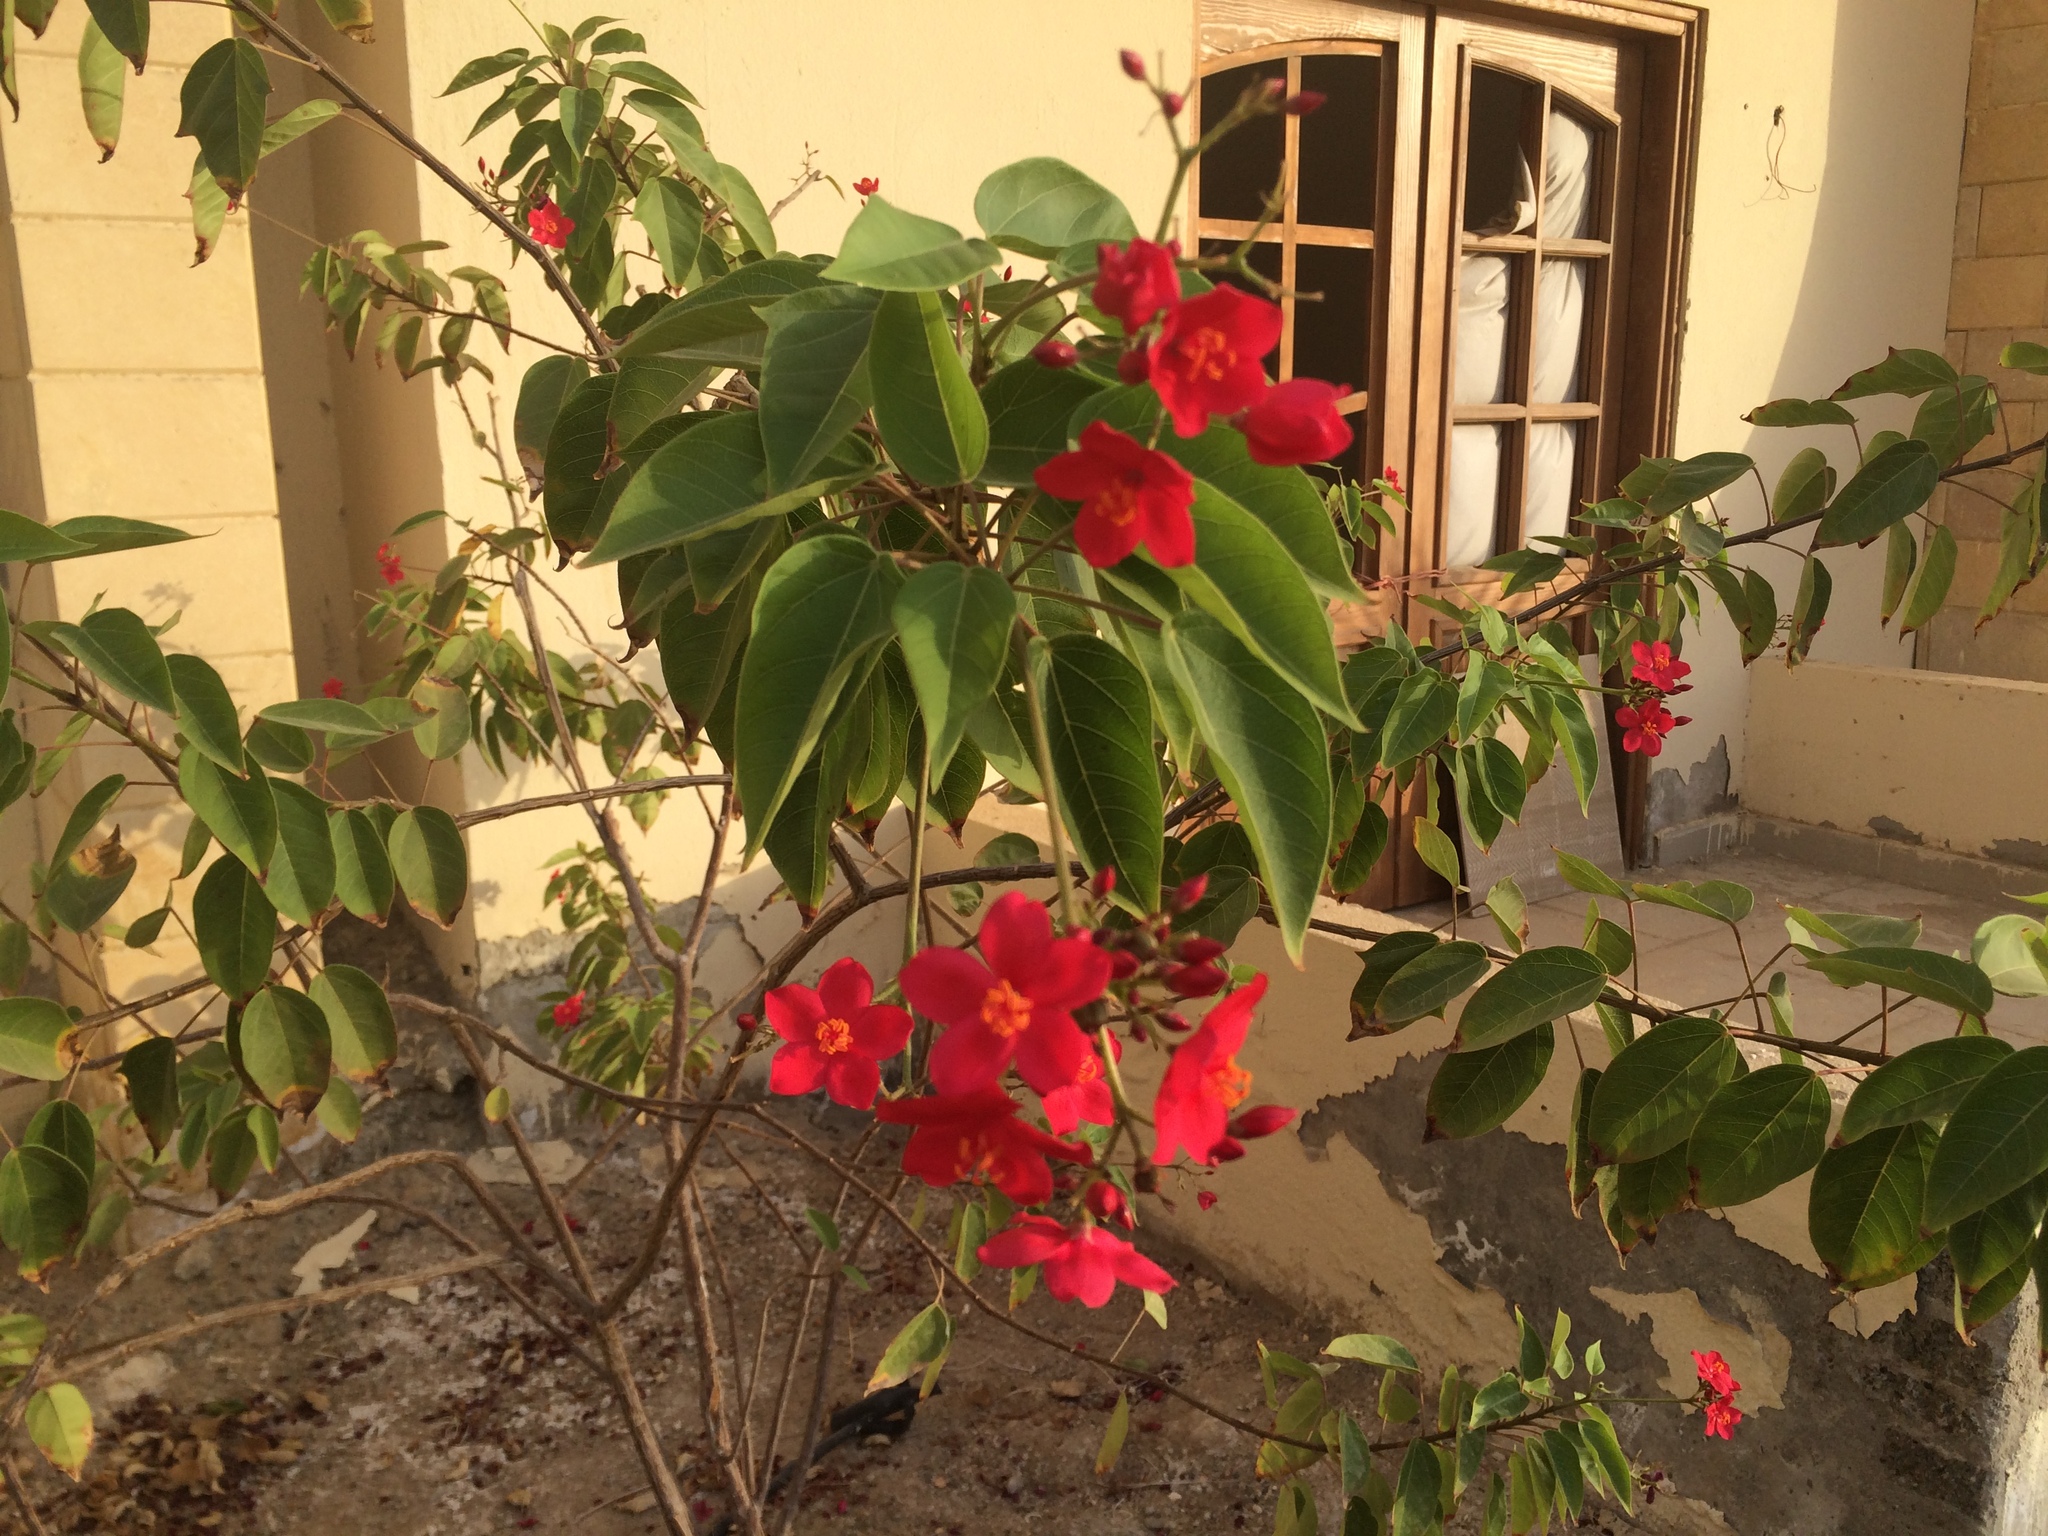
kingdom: Plantae
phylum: Tracheophyta
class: Magnoliopsida
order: Malpighiales
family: Euphorbiaceae
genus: Jatropha
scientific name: Jatropha integerrima
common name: Peregrina
